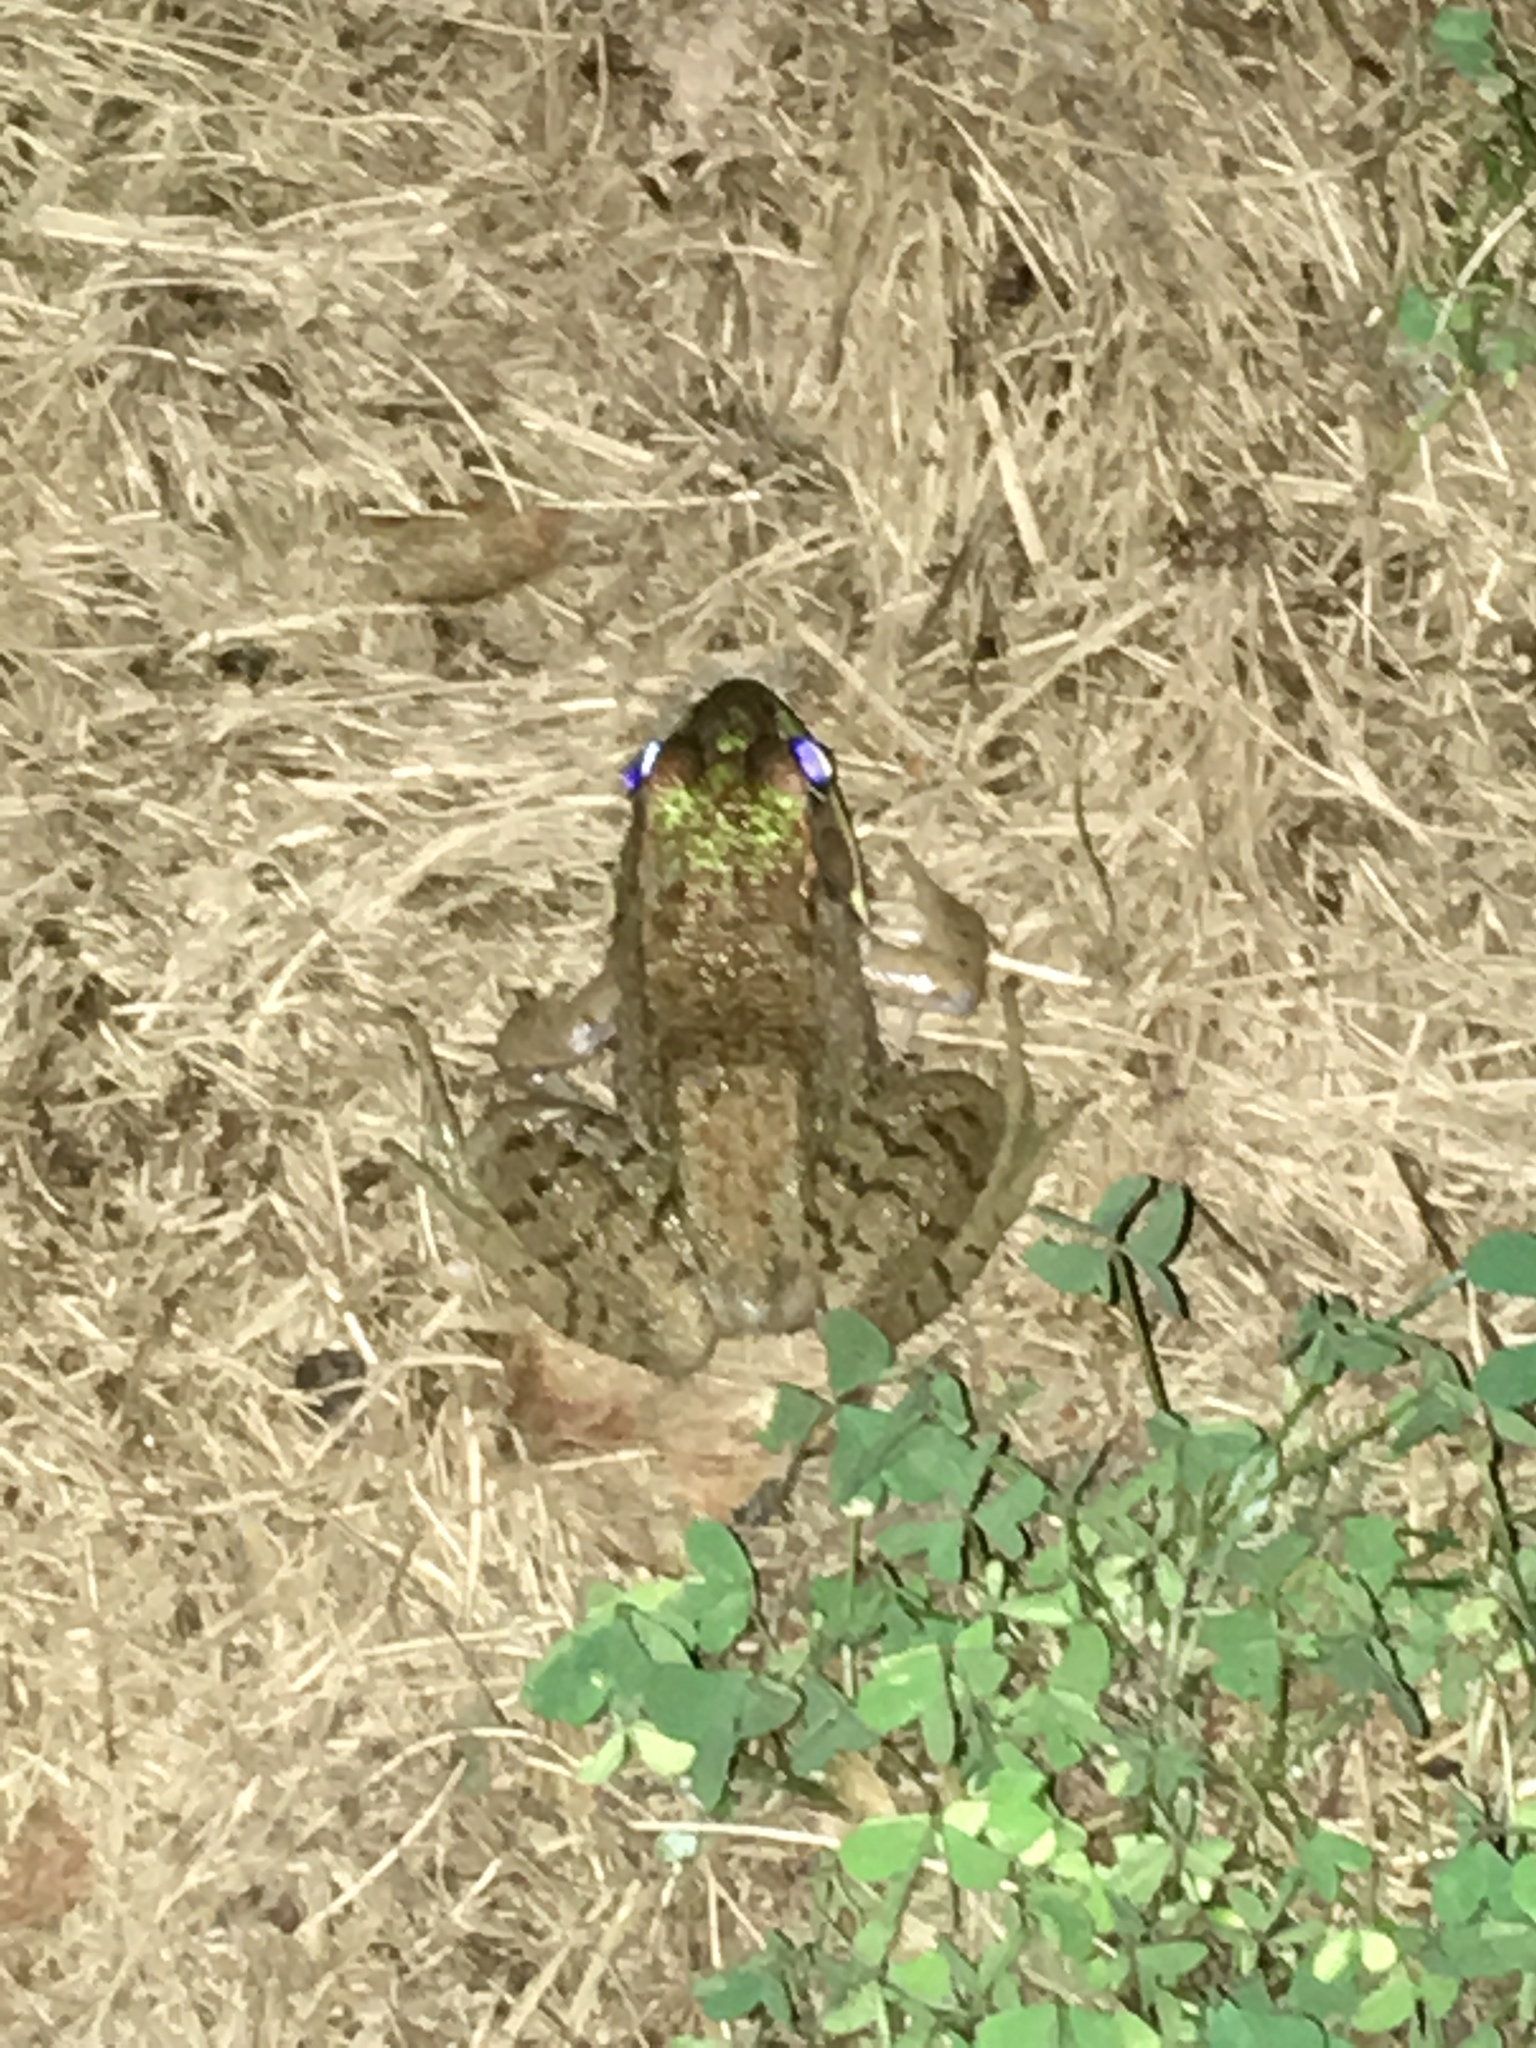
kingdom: Animalia
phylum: Chordata
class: Amphibia
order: Anura
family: Ranidae
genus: Lithobates
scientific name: Lithobates clamitans
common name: Green frog
